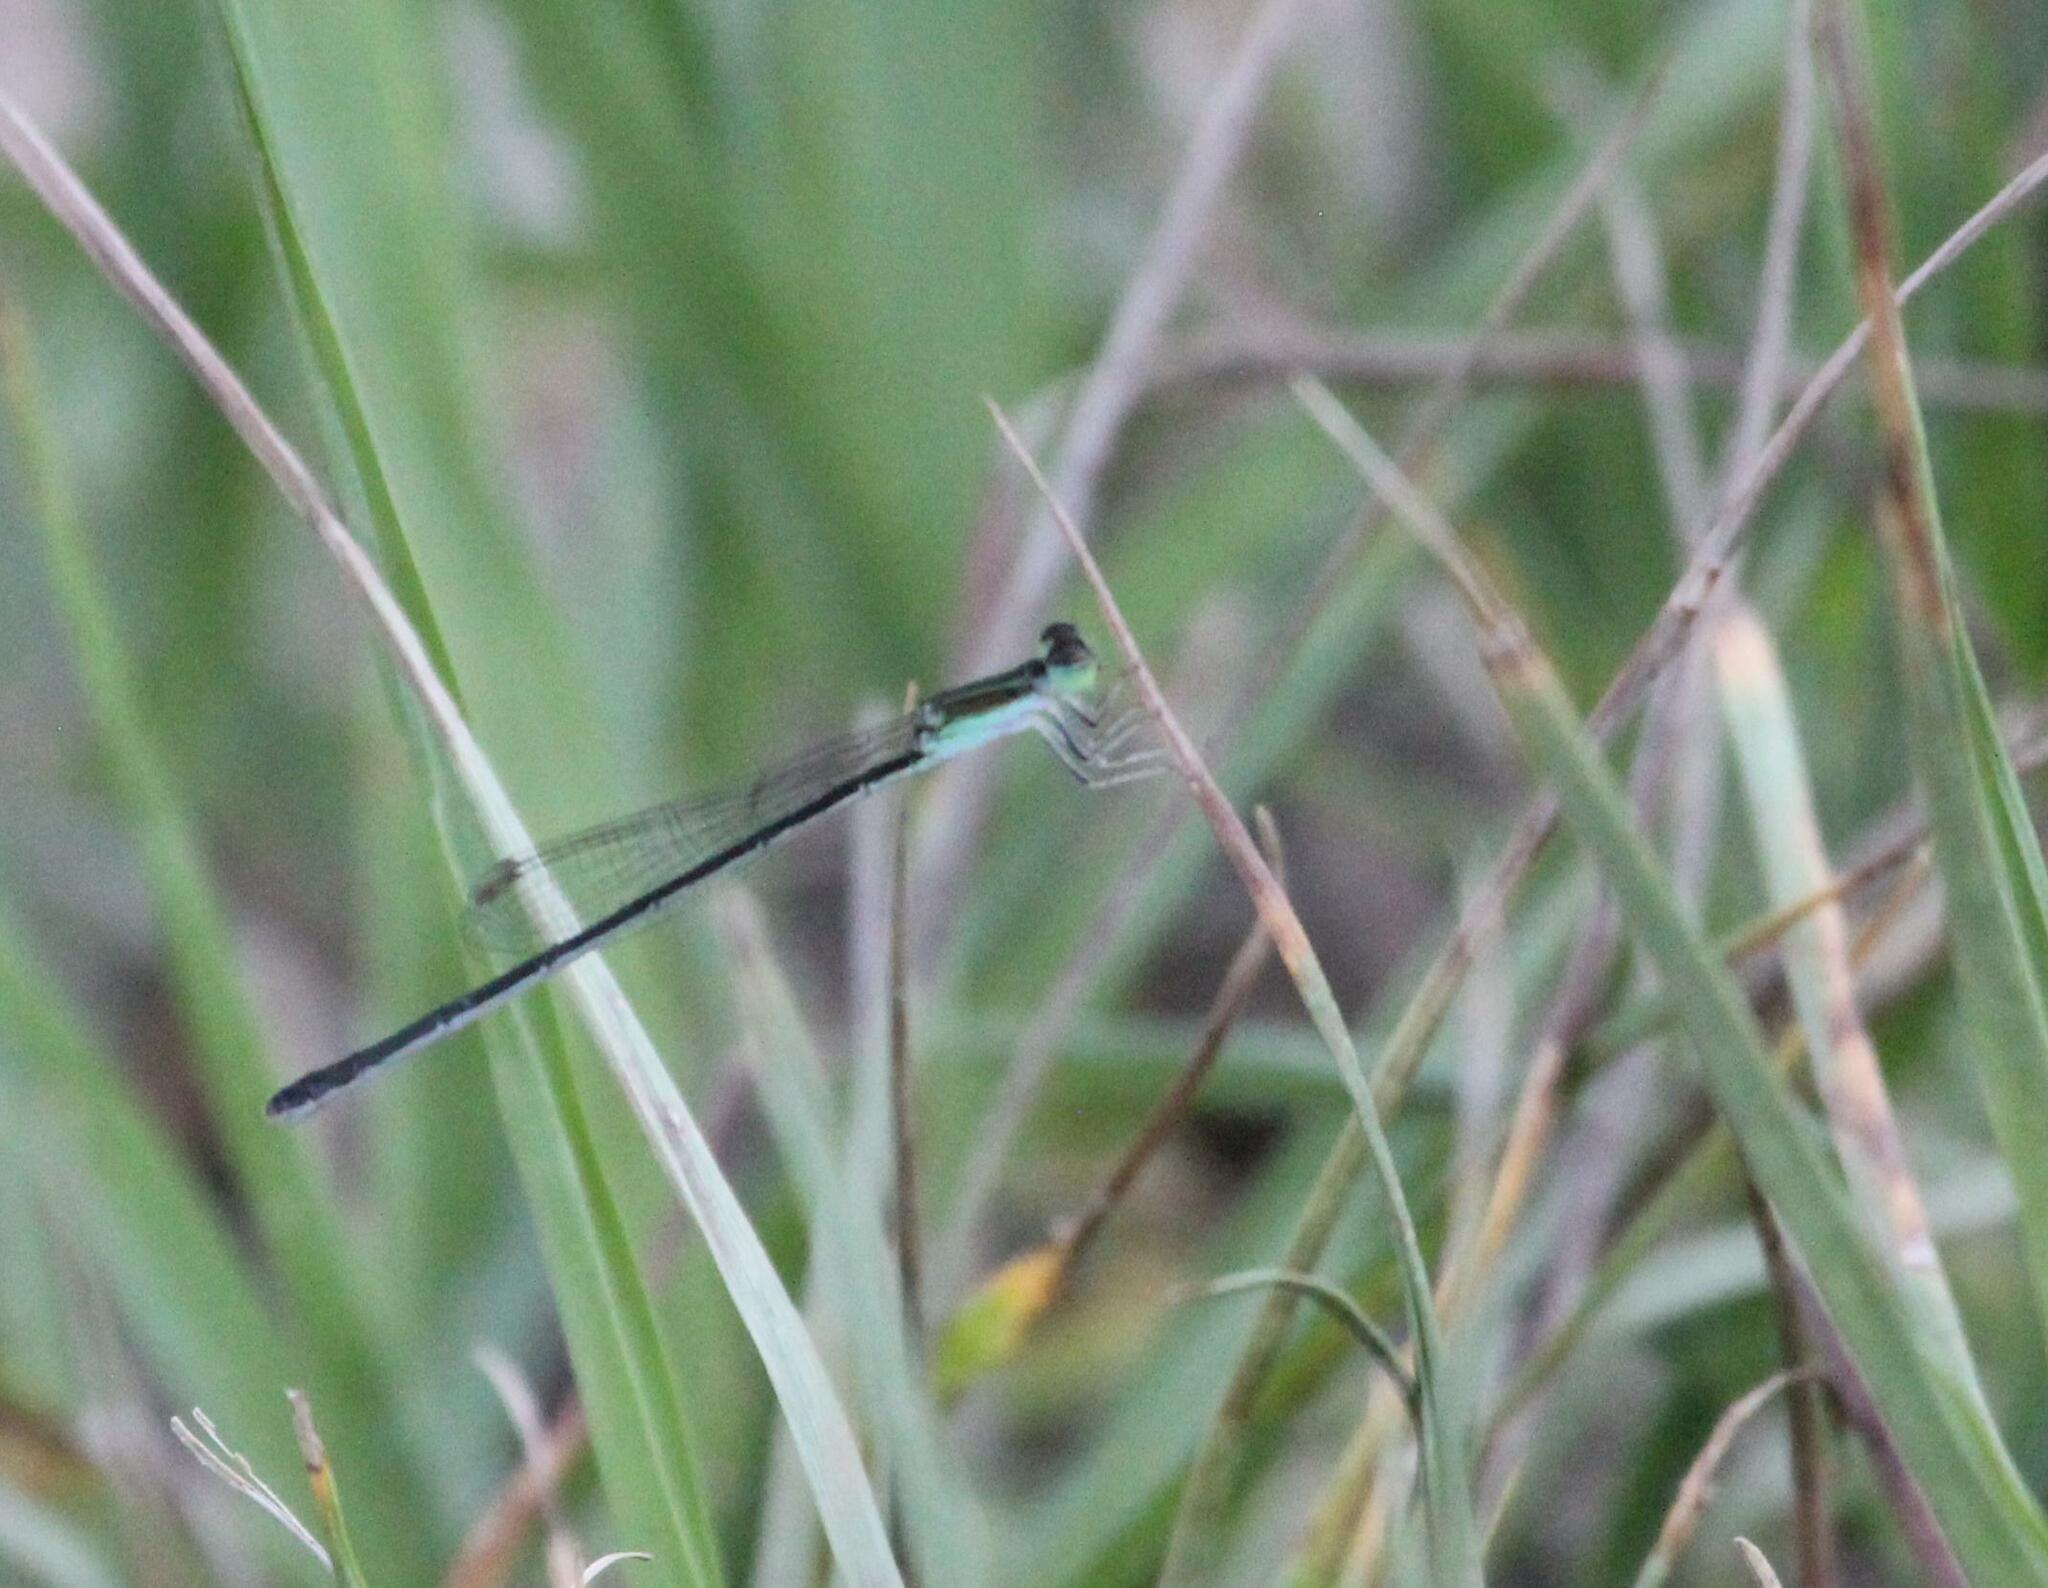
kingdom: Animalia
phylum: Arthropoda
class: Insecta
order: Odonata
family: Coenagrionidae
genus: Ischnura
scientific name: Ischnura prognata
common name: Furtive forktail
